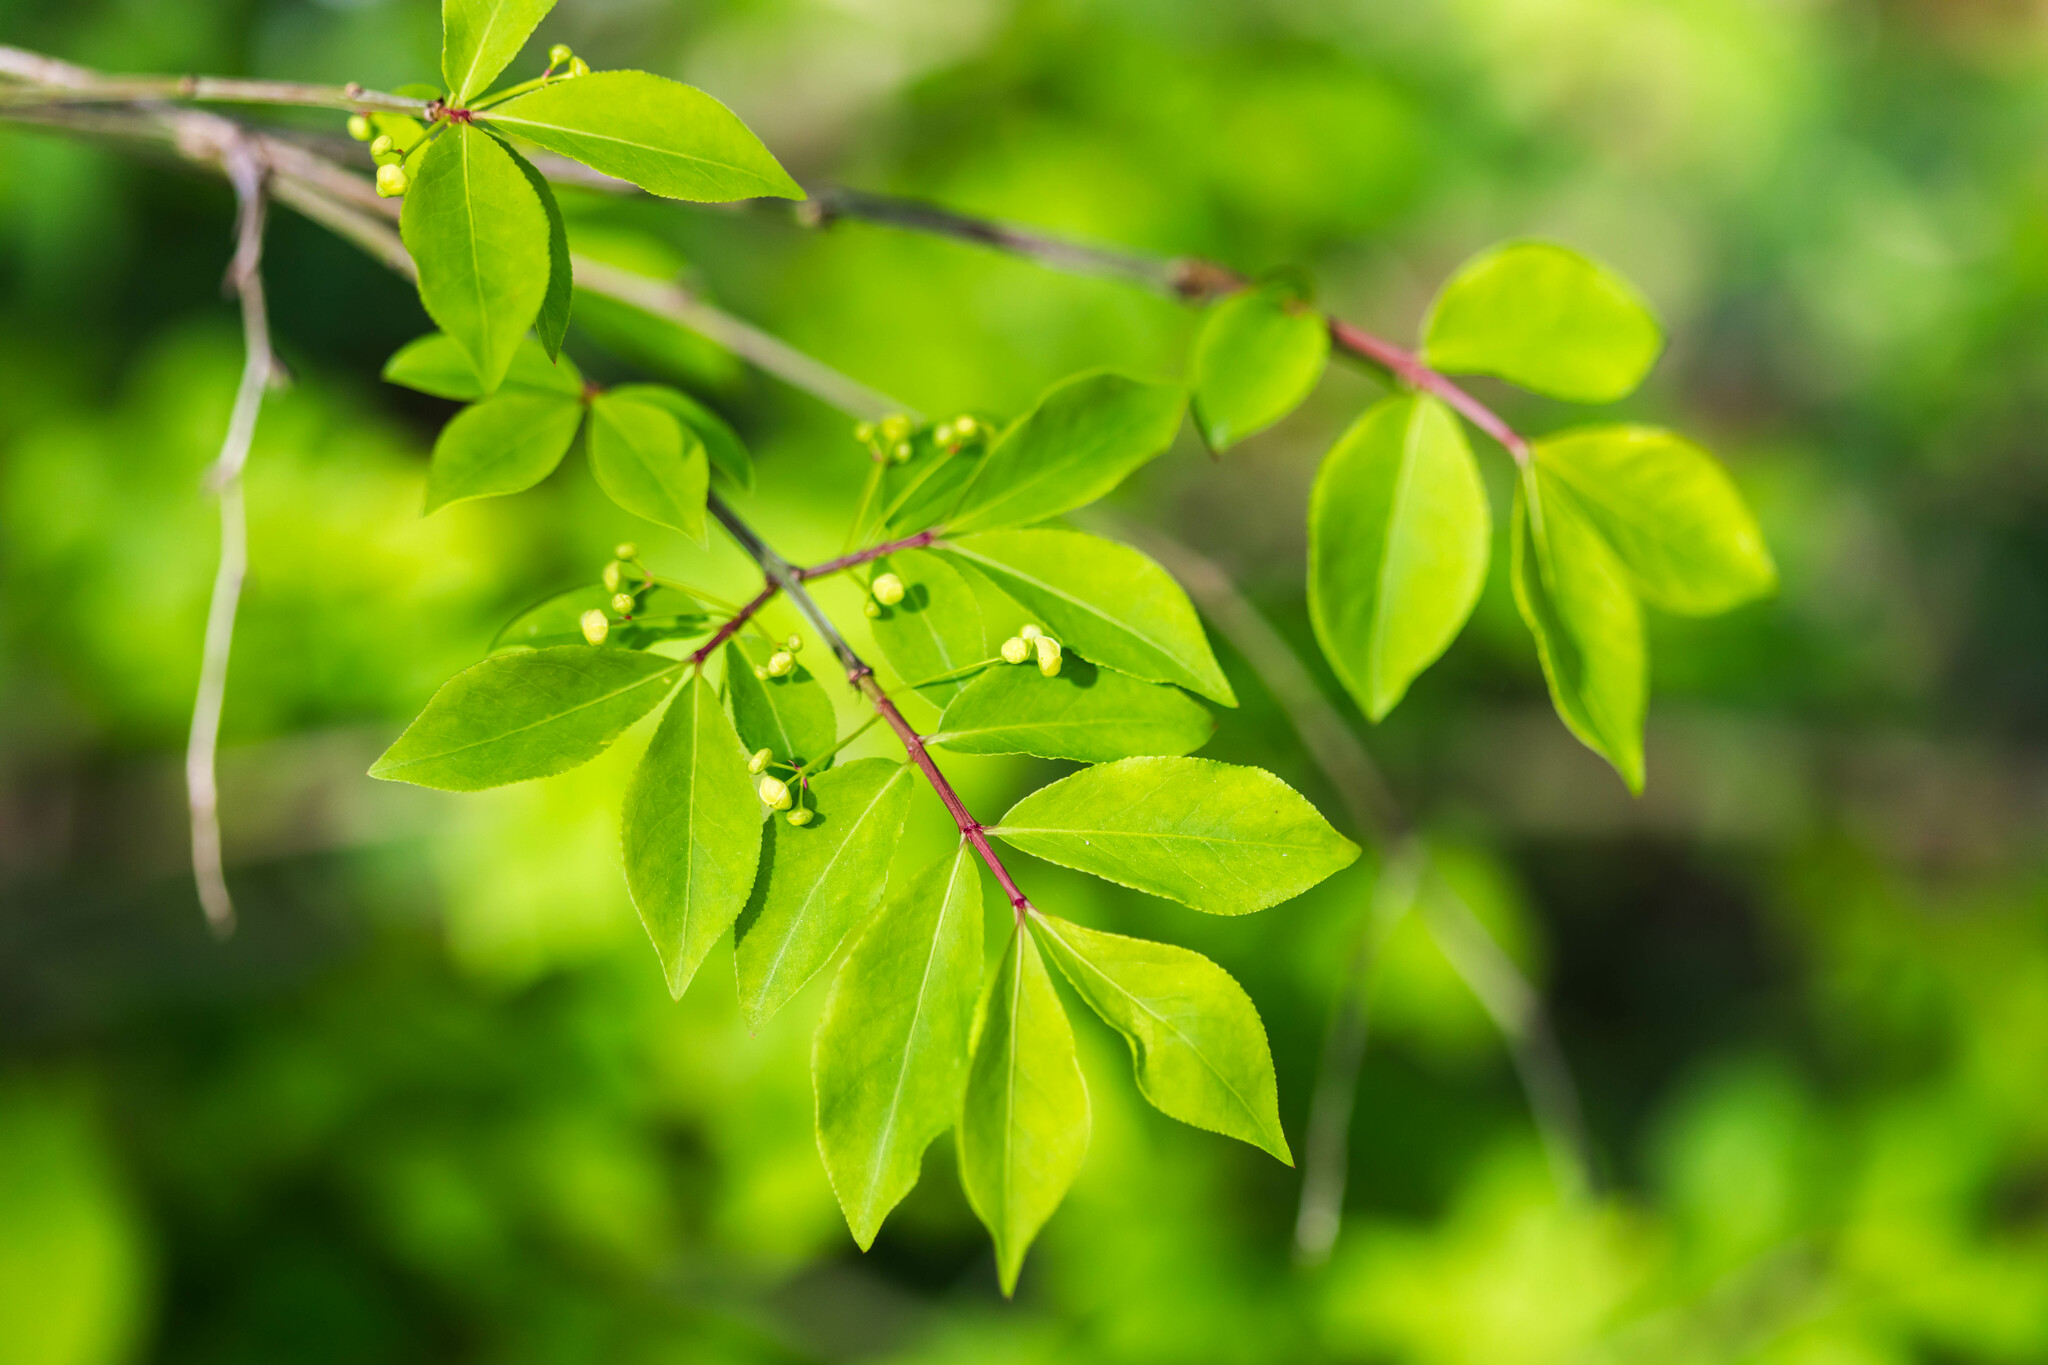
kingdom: Plantae
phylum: Tracheophyta
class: Magnoliopsida
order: Celastrales
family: Celastraceae
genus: Euonymus
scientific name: Euonymus alatus
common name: Winged euonymus
